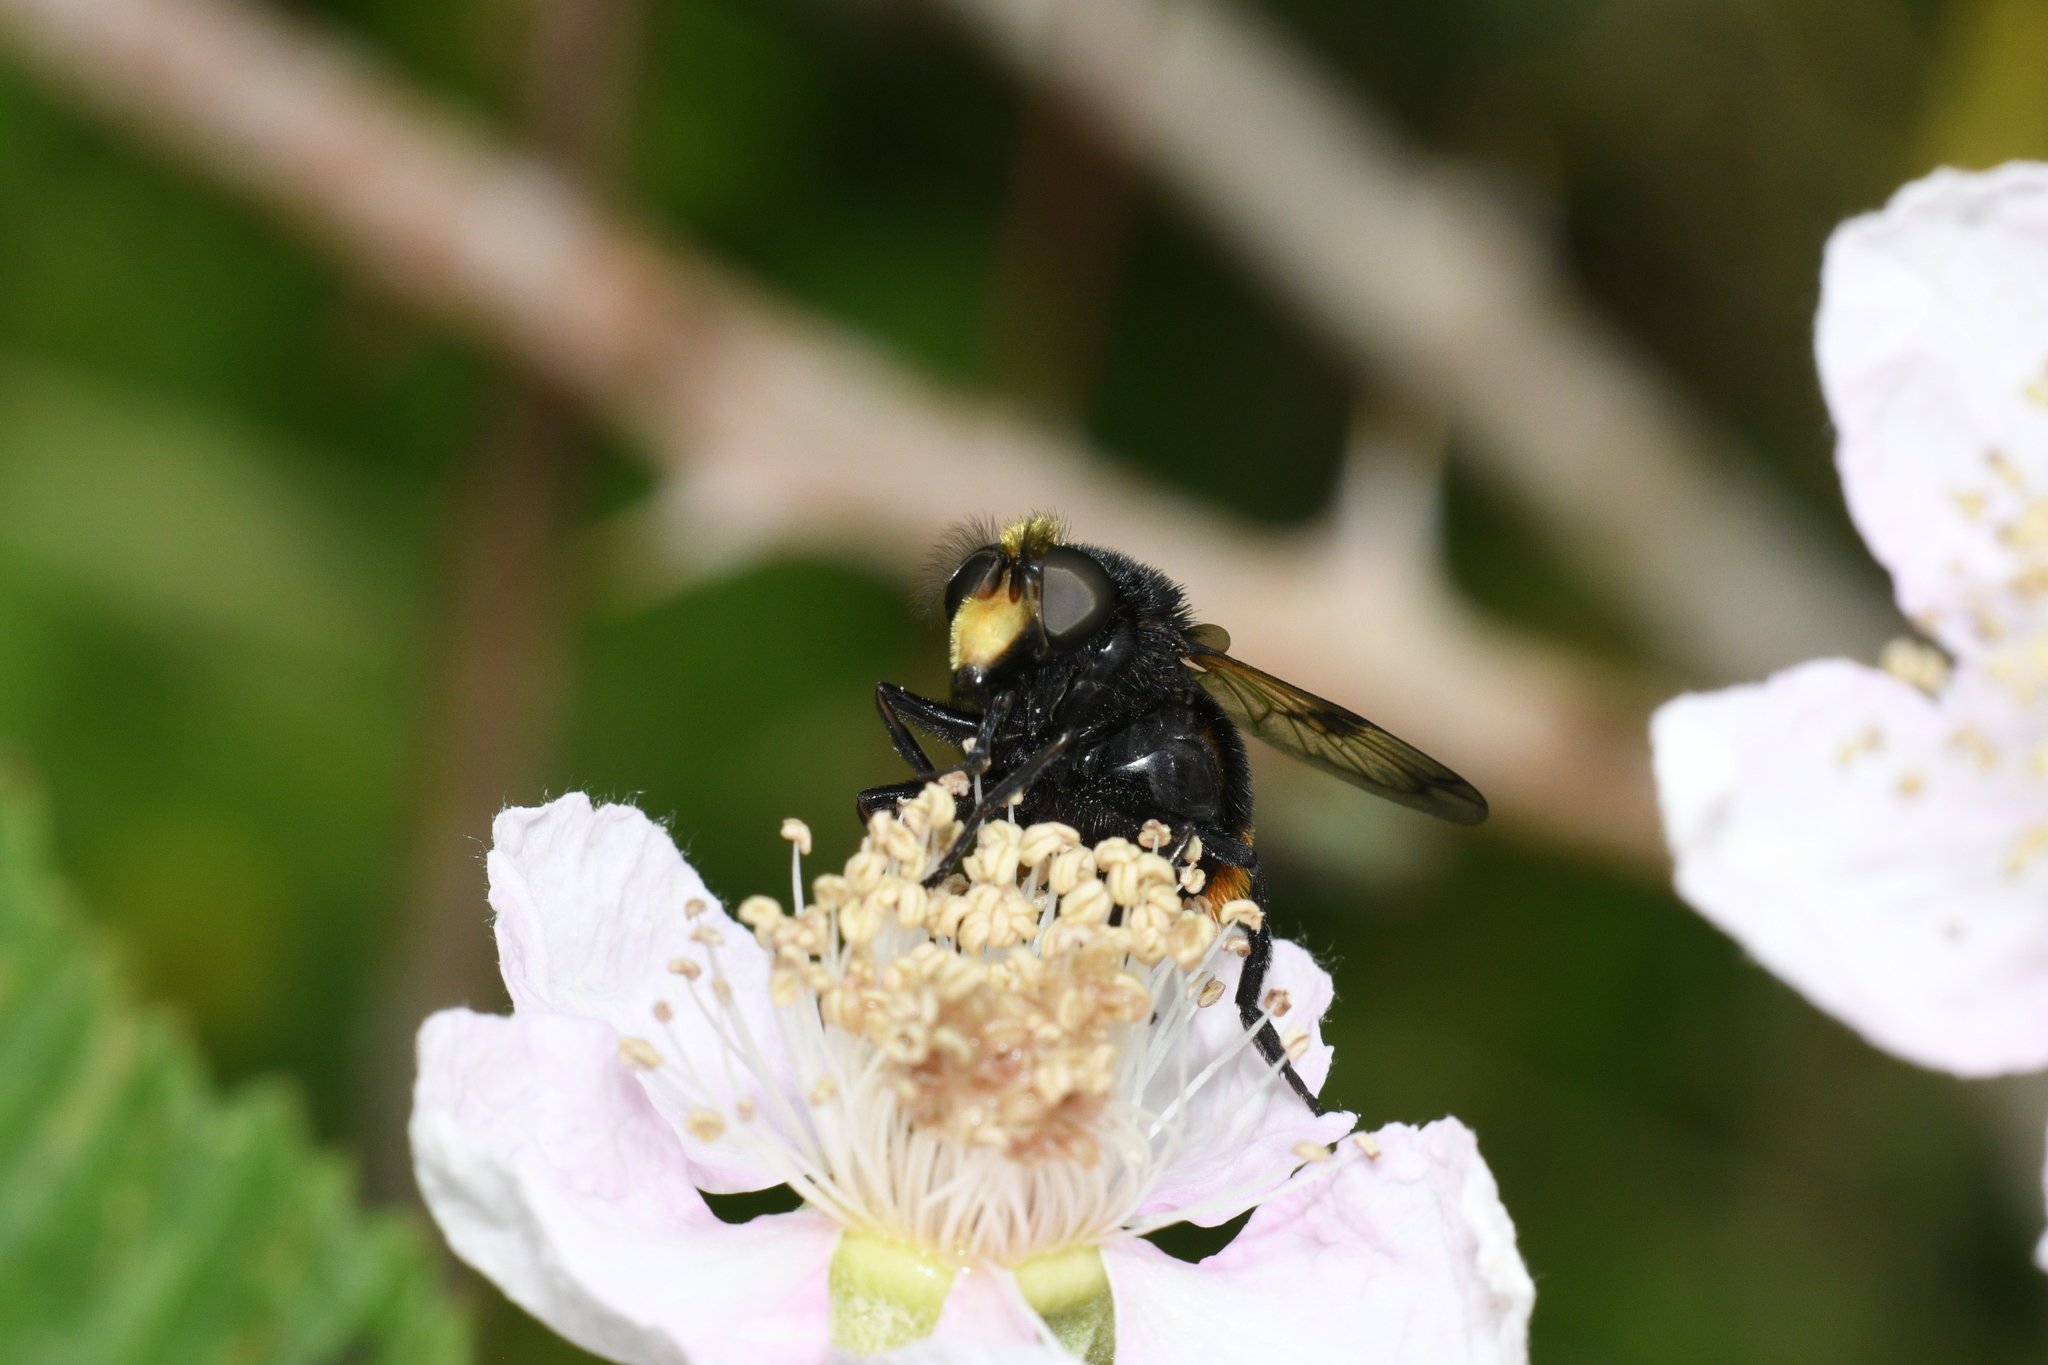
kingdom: Animalia
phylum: Arthropoda
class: Insecta
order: Diptera
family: Syrphidae
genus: Volucella
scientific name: Volucella bombylans
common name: Bumble bee hover fly
